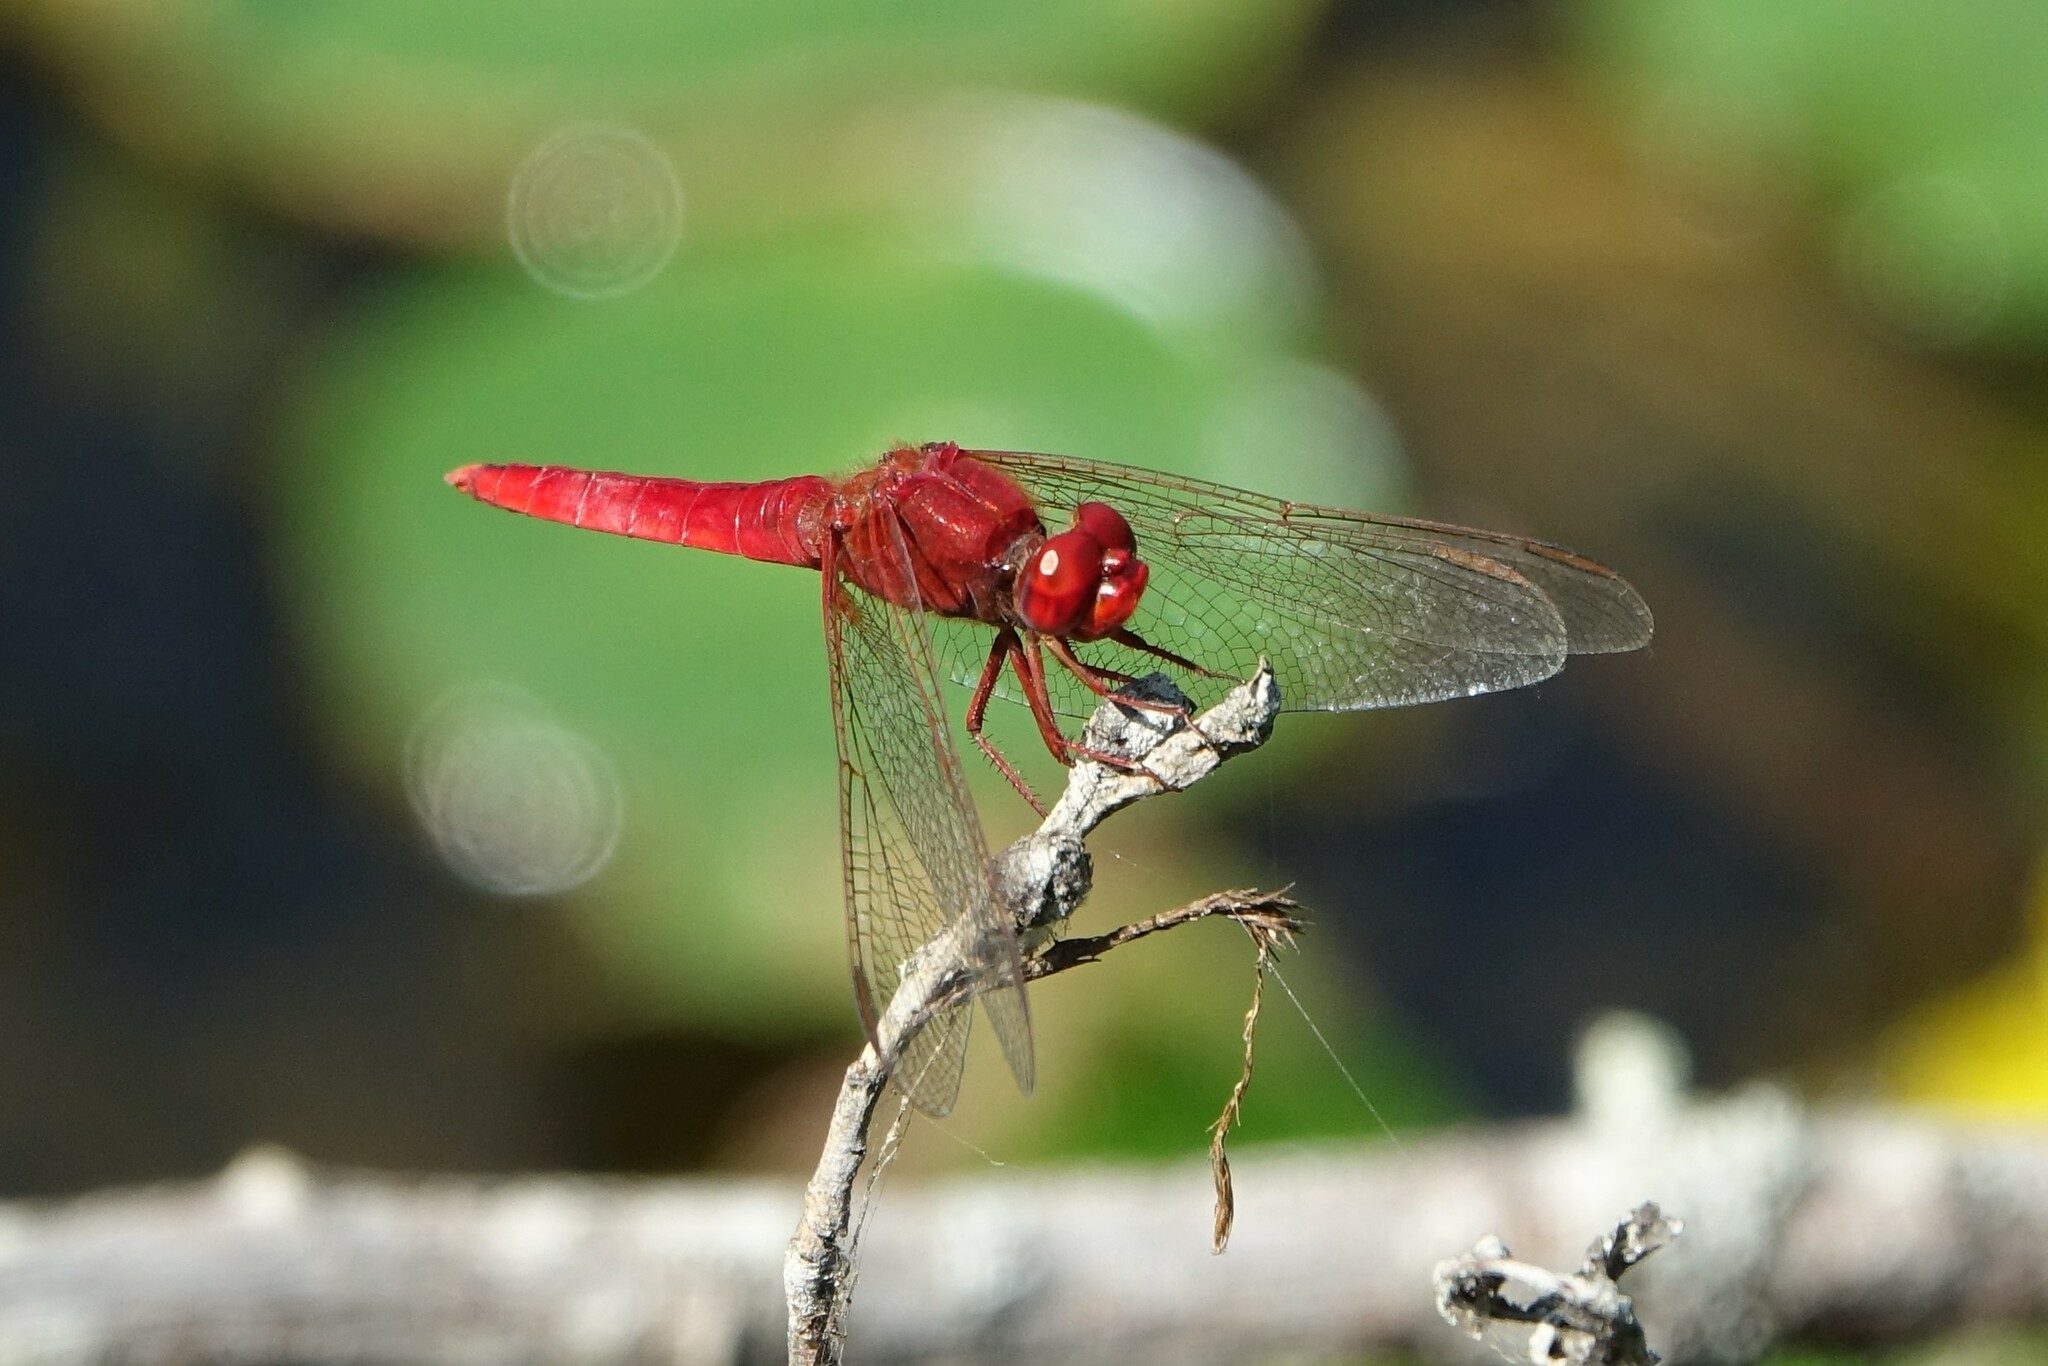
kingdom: Animalia
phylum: Arthropoda
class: Insecta
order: Odonata
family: Libellulidae
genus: Crocothemis
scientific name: Crocothemis erythraea
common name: Scarlet dragonfly
